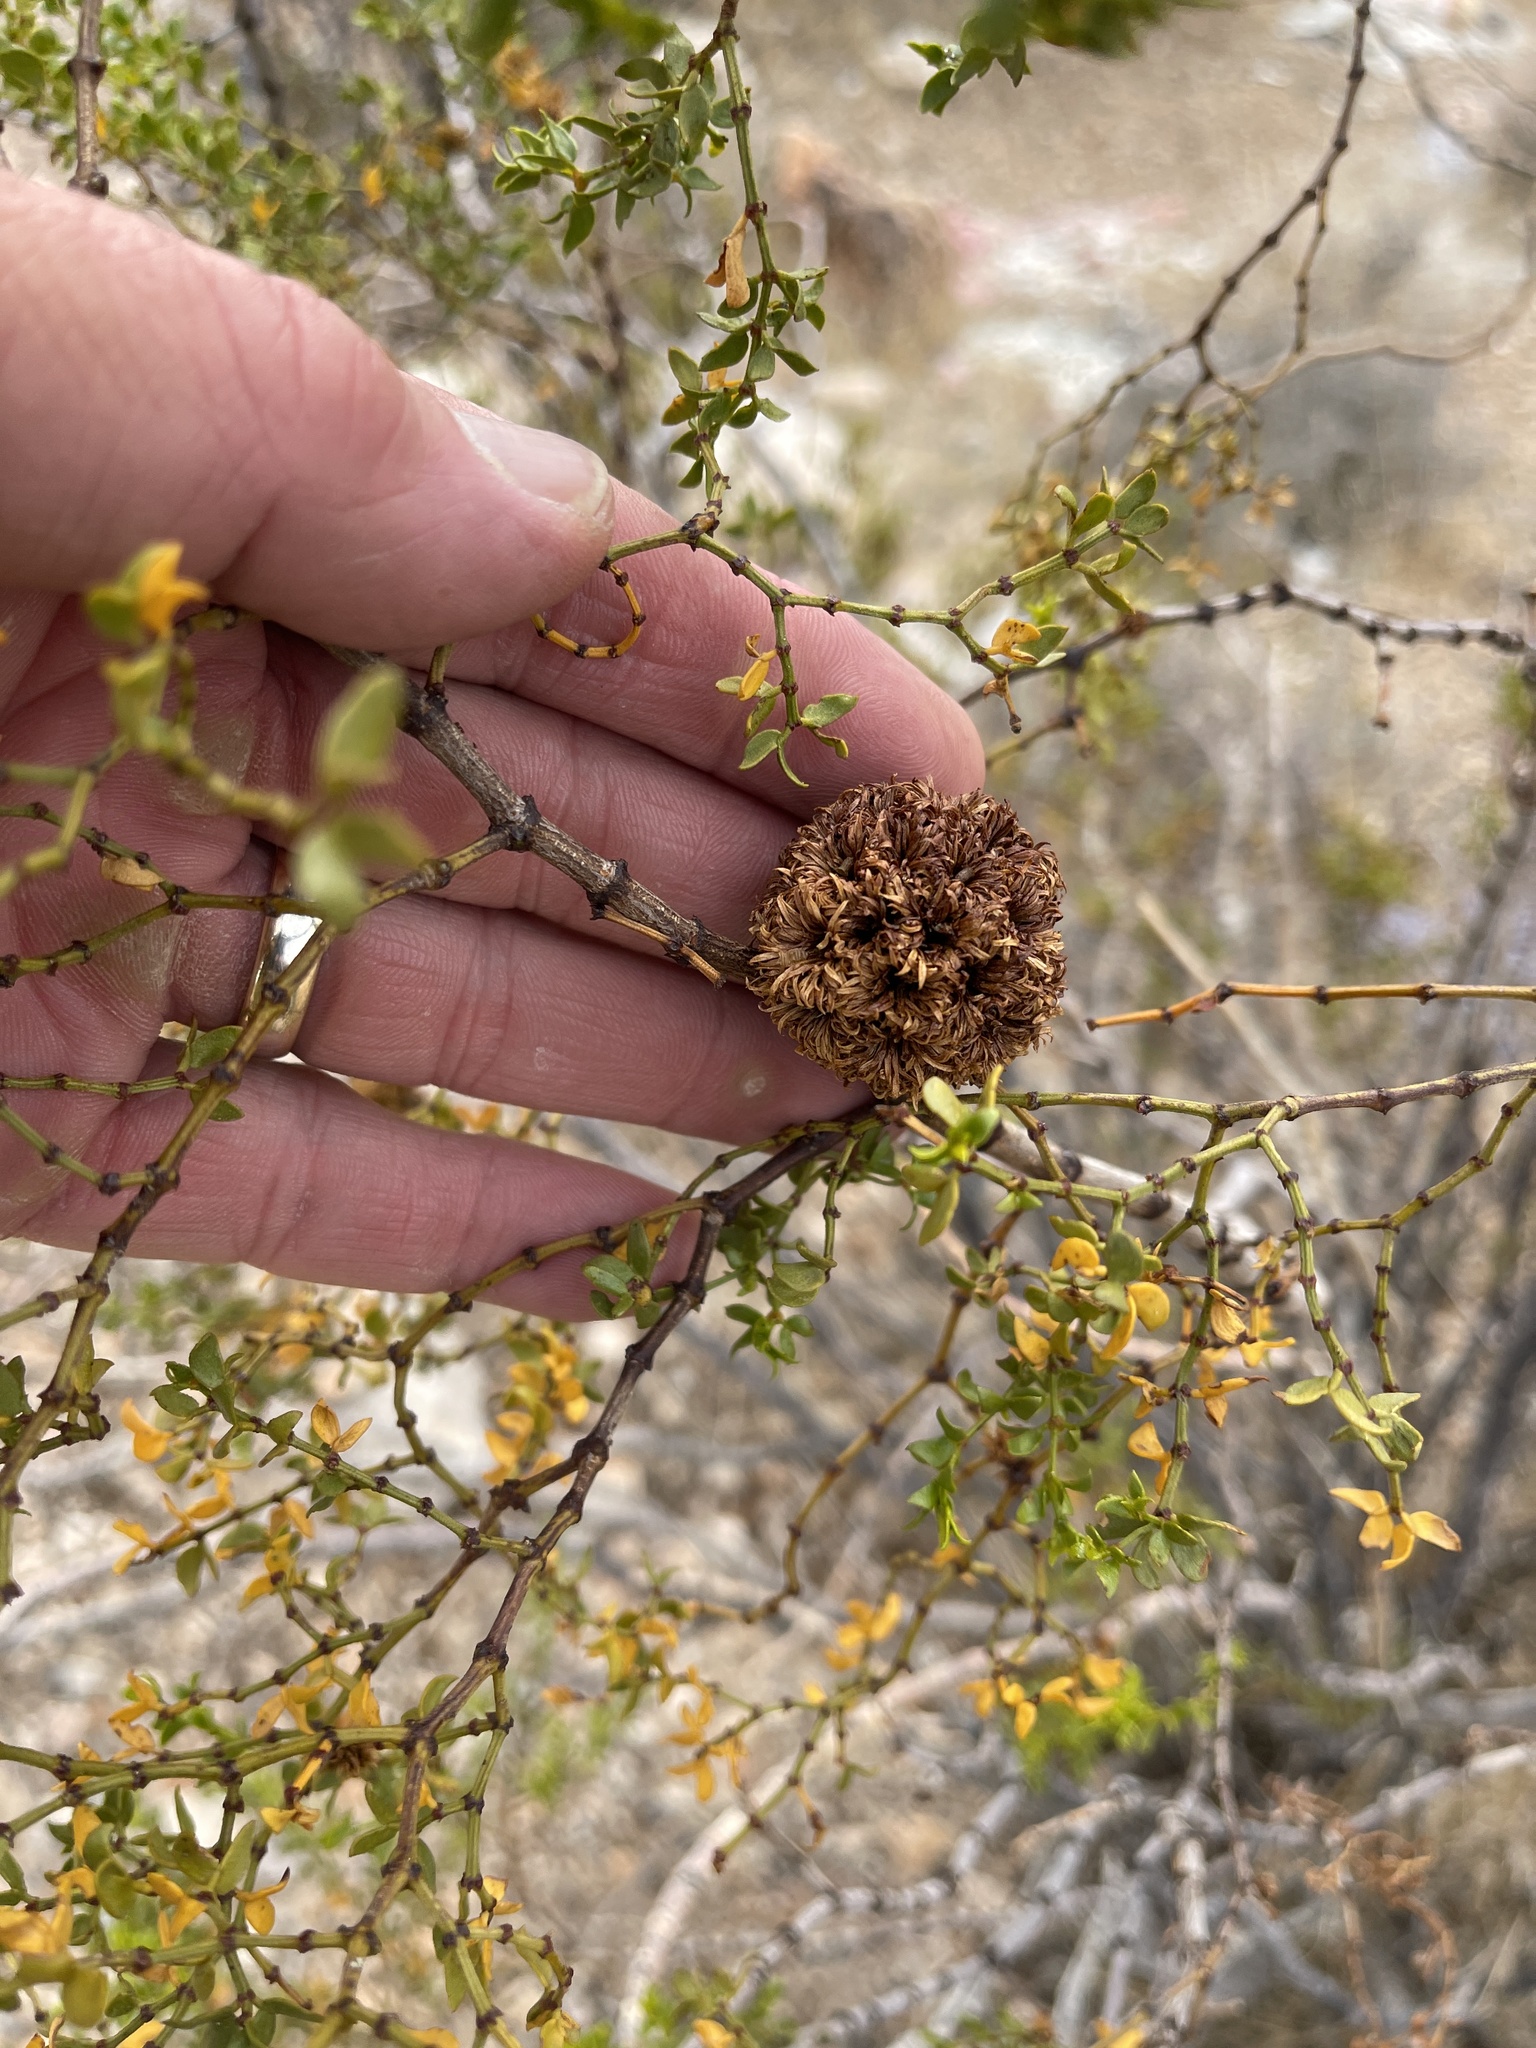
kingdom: Animalia
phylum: Arthropoda
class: Insecta
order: Diptera
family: Cecidomyiidae
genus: Asphondylia
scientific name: Asphondylia auripila
